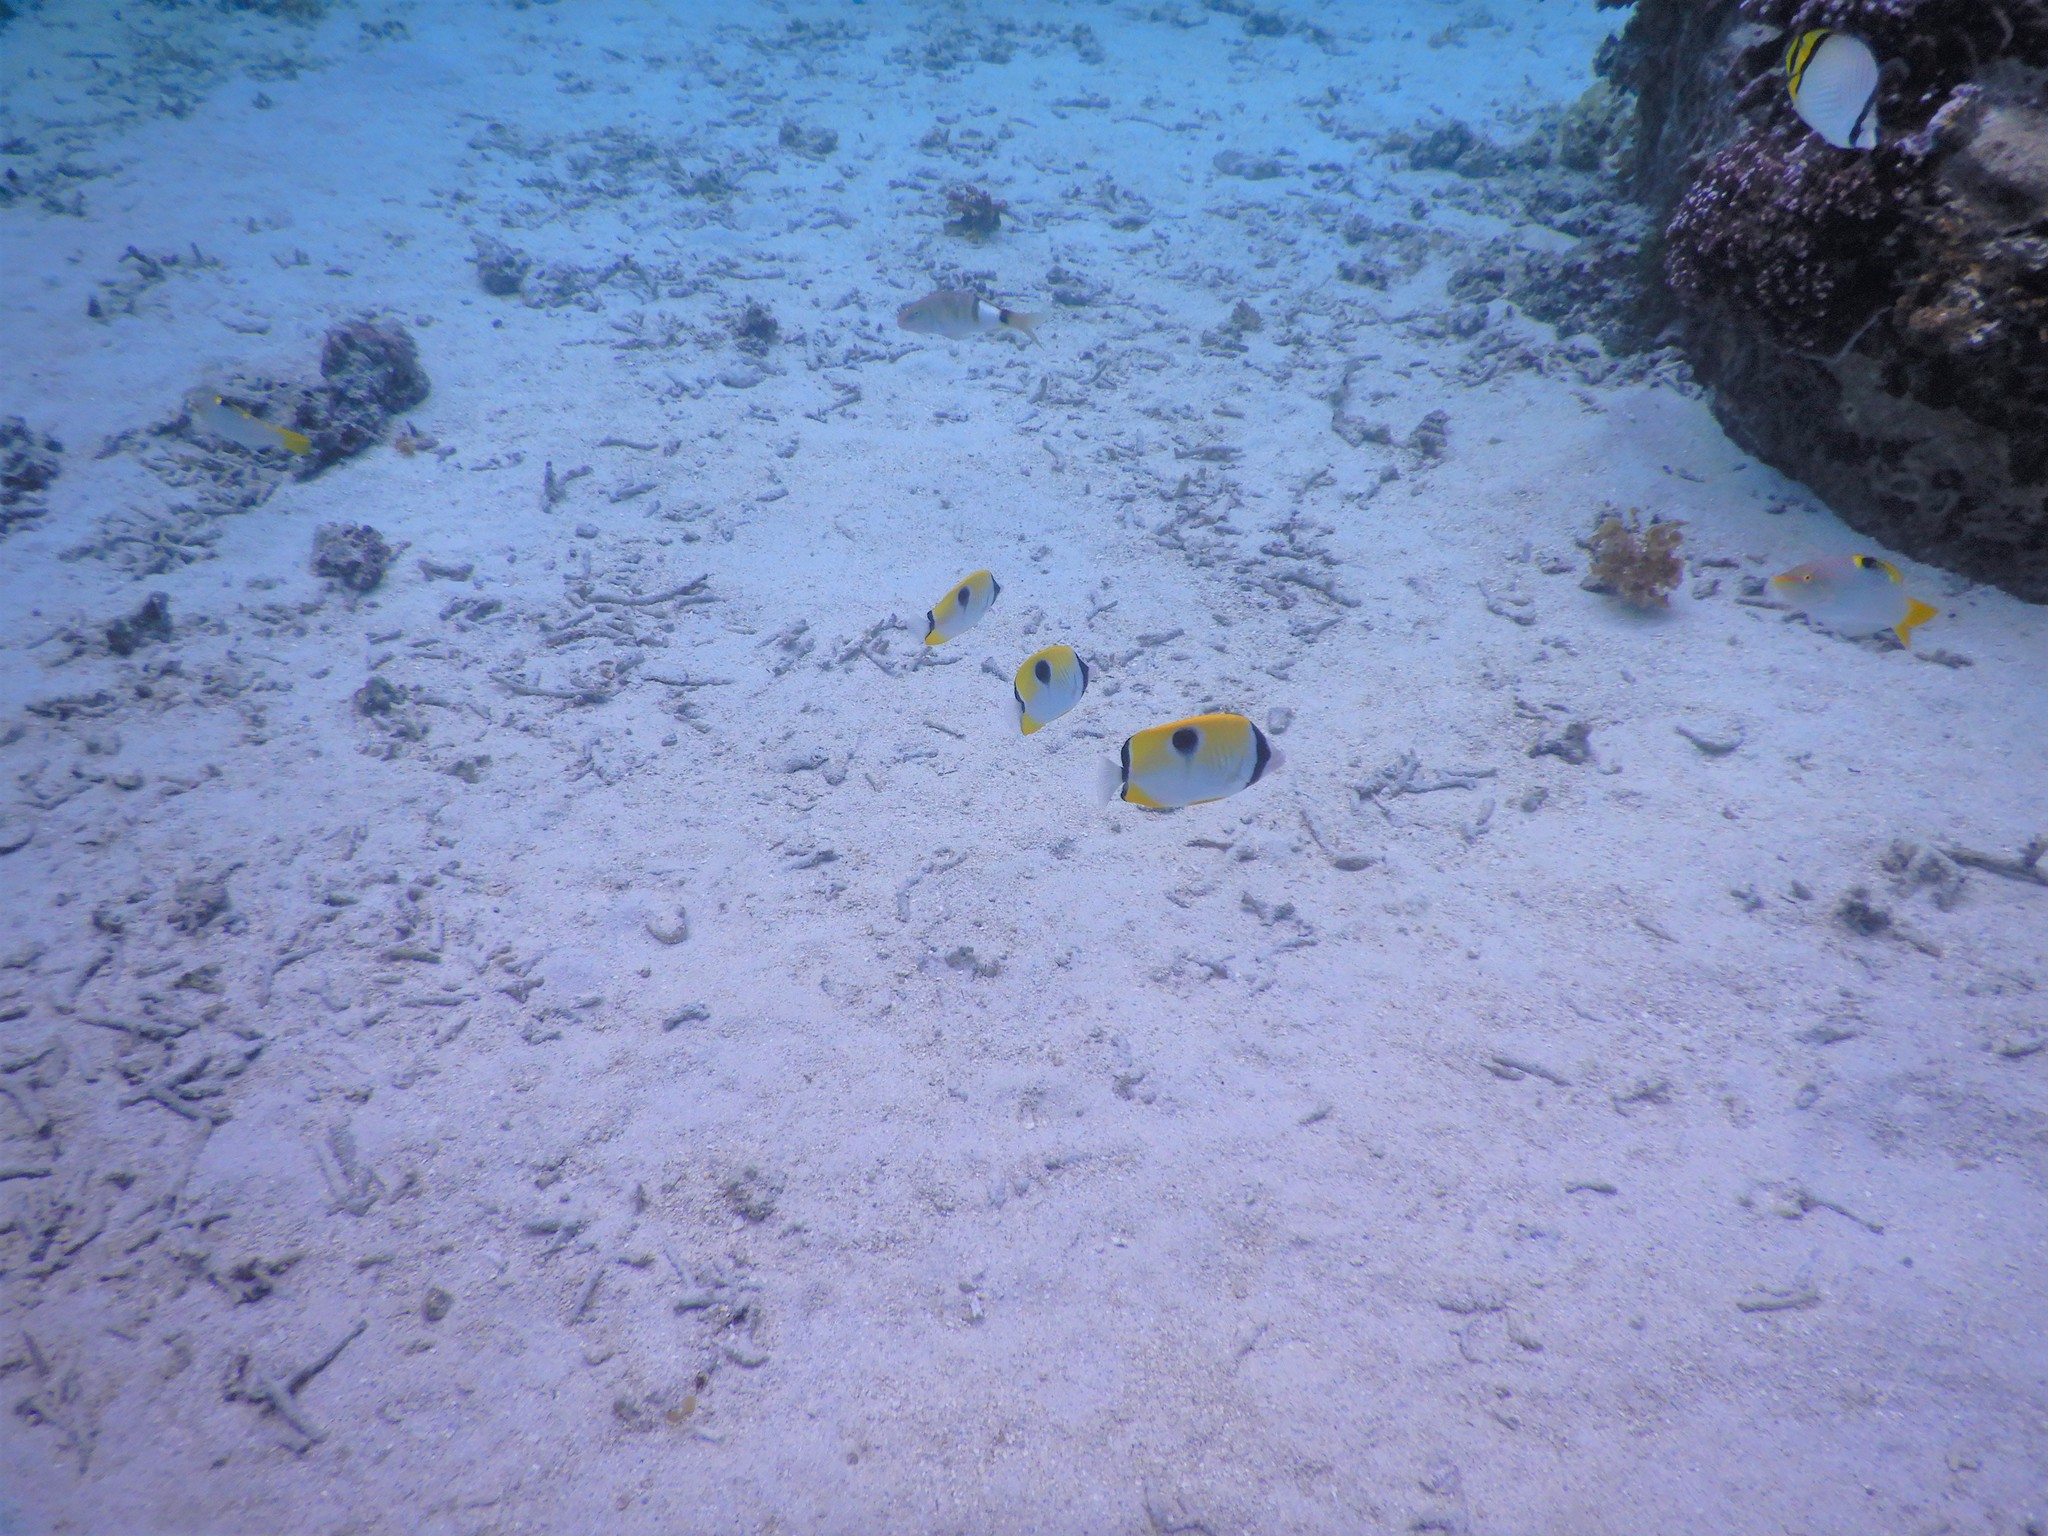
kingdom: Animalia
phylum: Chordata
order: Perciformes
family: Chaetodontidae
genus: Chaetodon
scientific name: Chaetodon unimaculatus
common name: Teardrop butterflyfish
